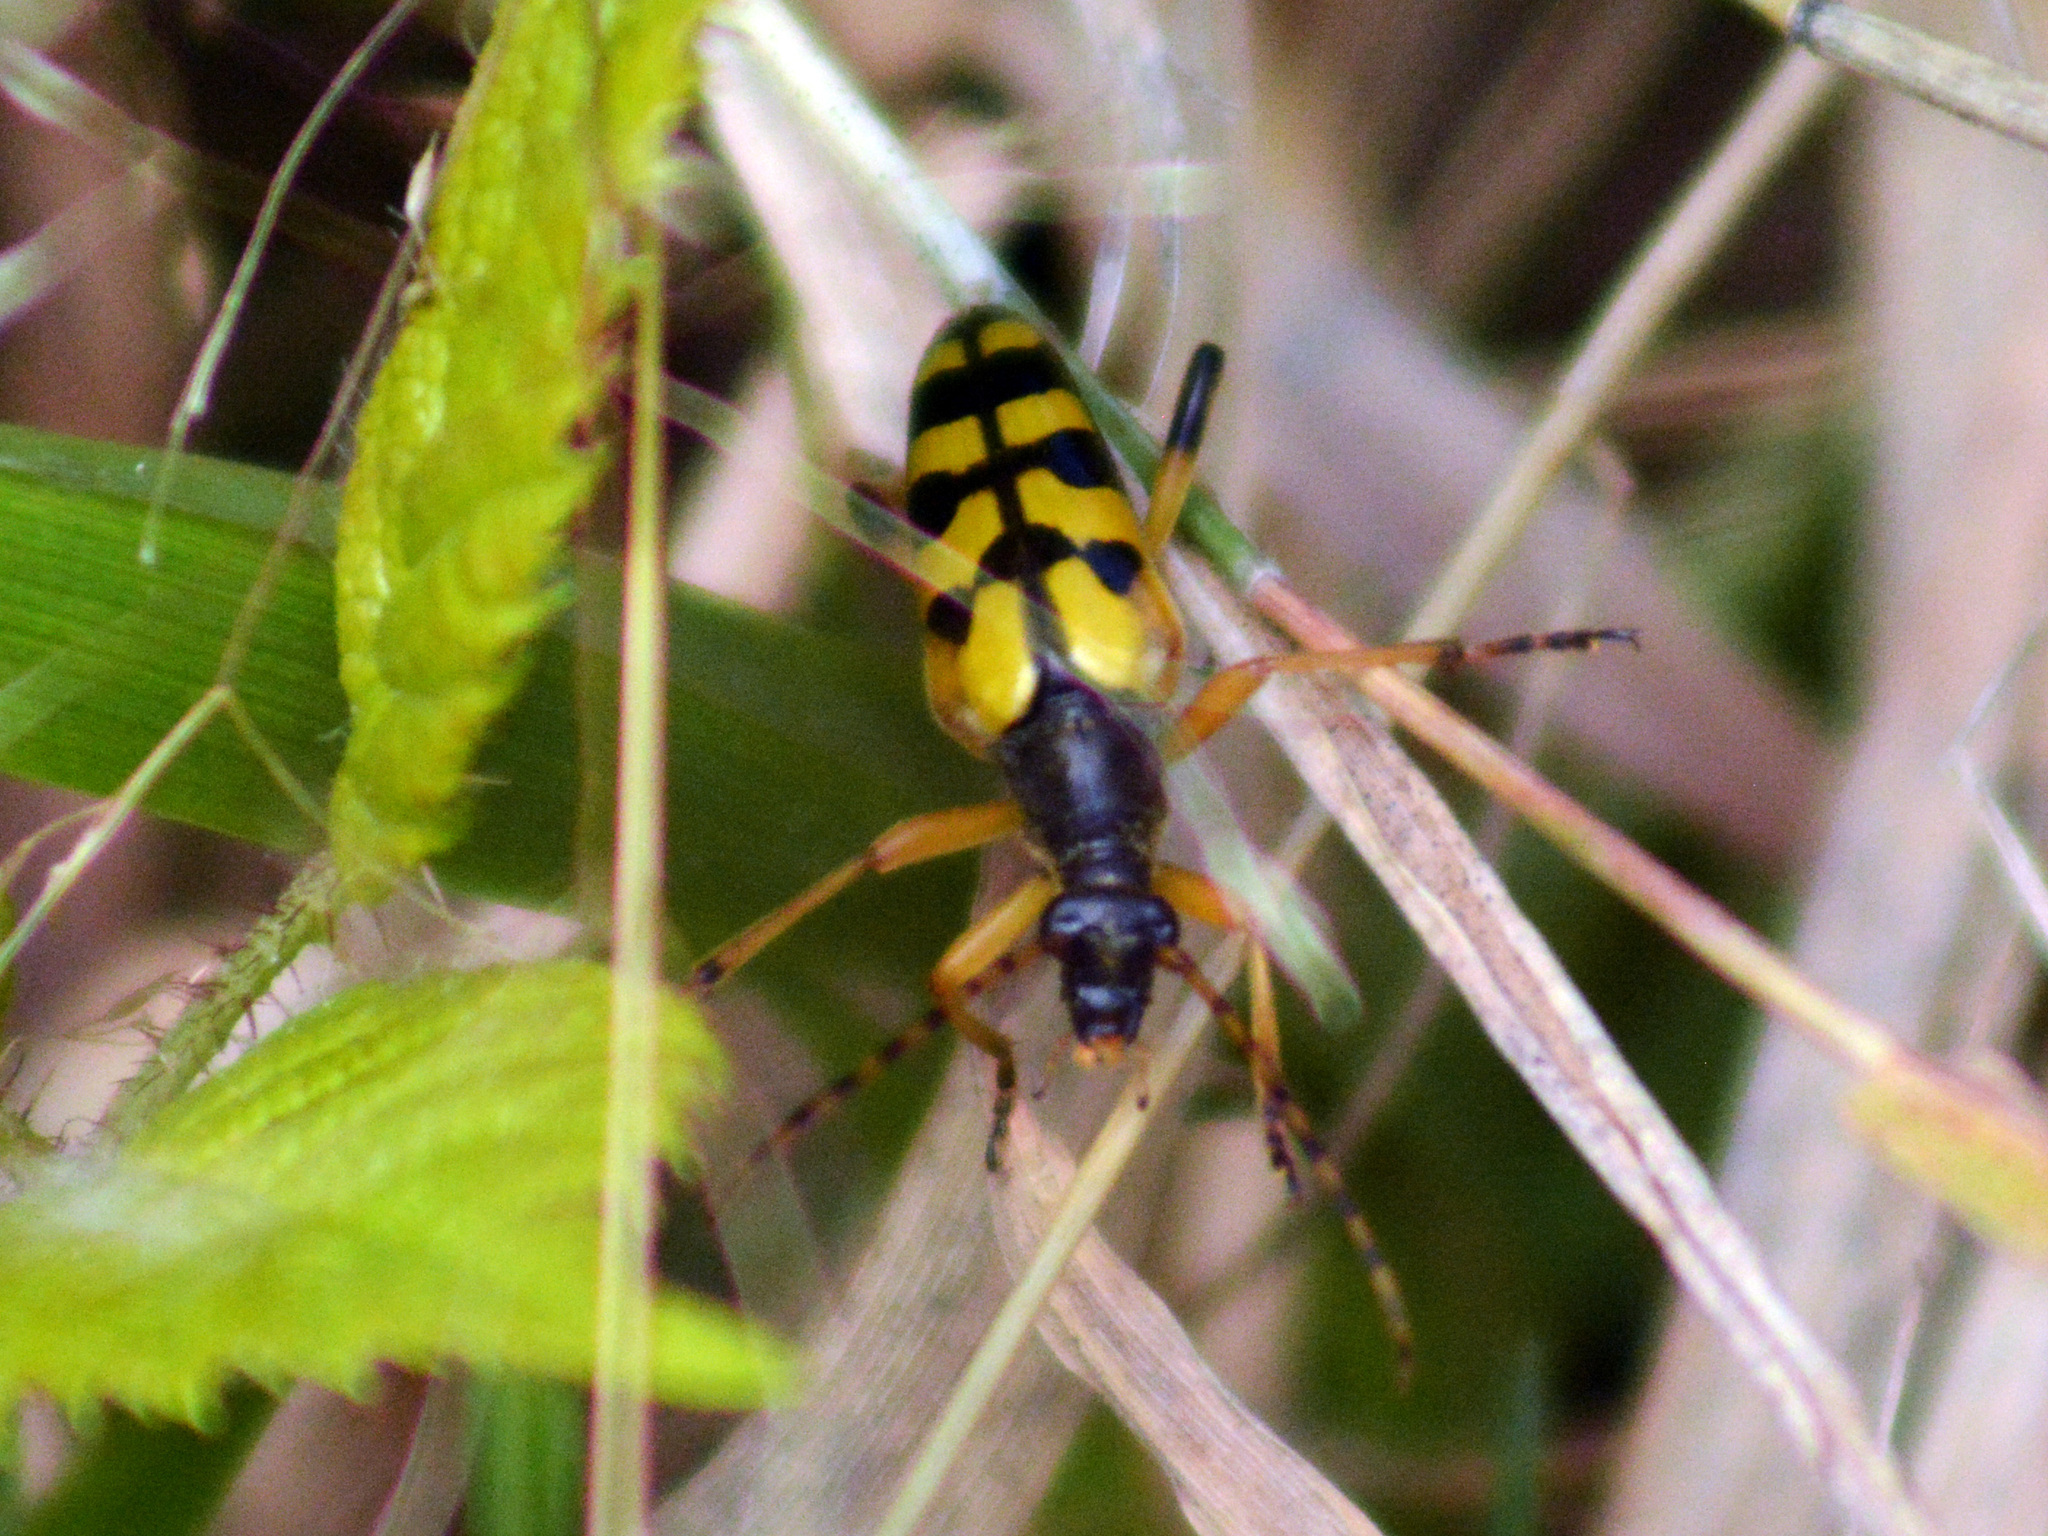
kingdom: Animalia
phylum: Arthropoda
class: Insecta
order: Coleoptera
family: Cerambycidae
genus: Rutpela
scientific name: Rutpela maculata
